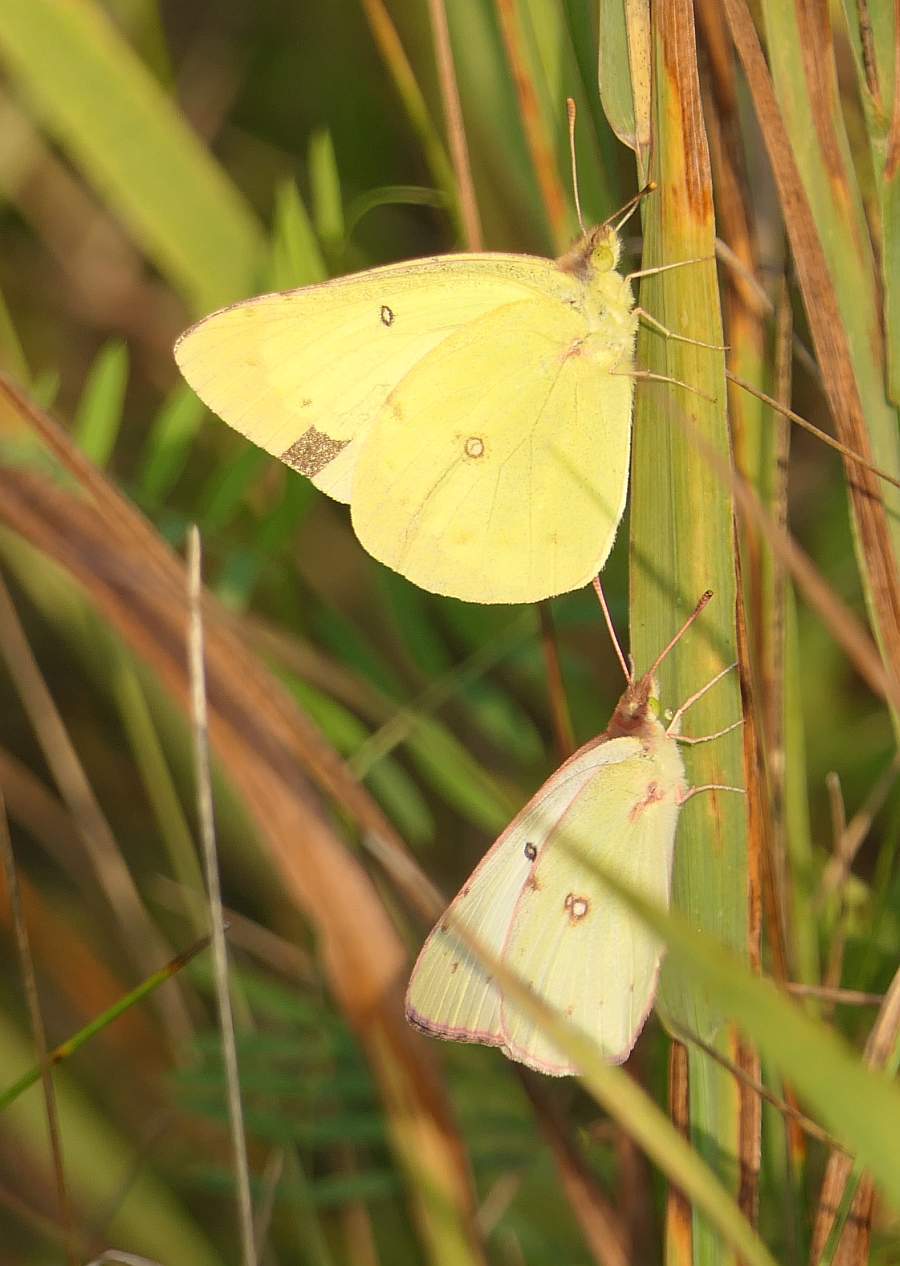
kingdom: Animalia
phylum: Arthropoda
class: Insecta
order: Lepidoptera
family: Pieridae
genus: Colias
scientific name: Colias philodice
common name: Clouded sulphur
